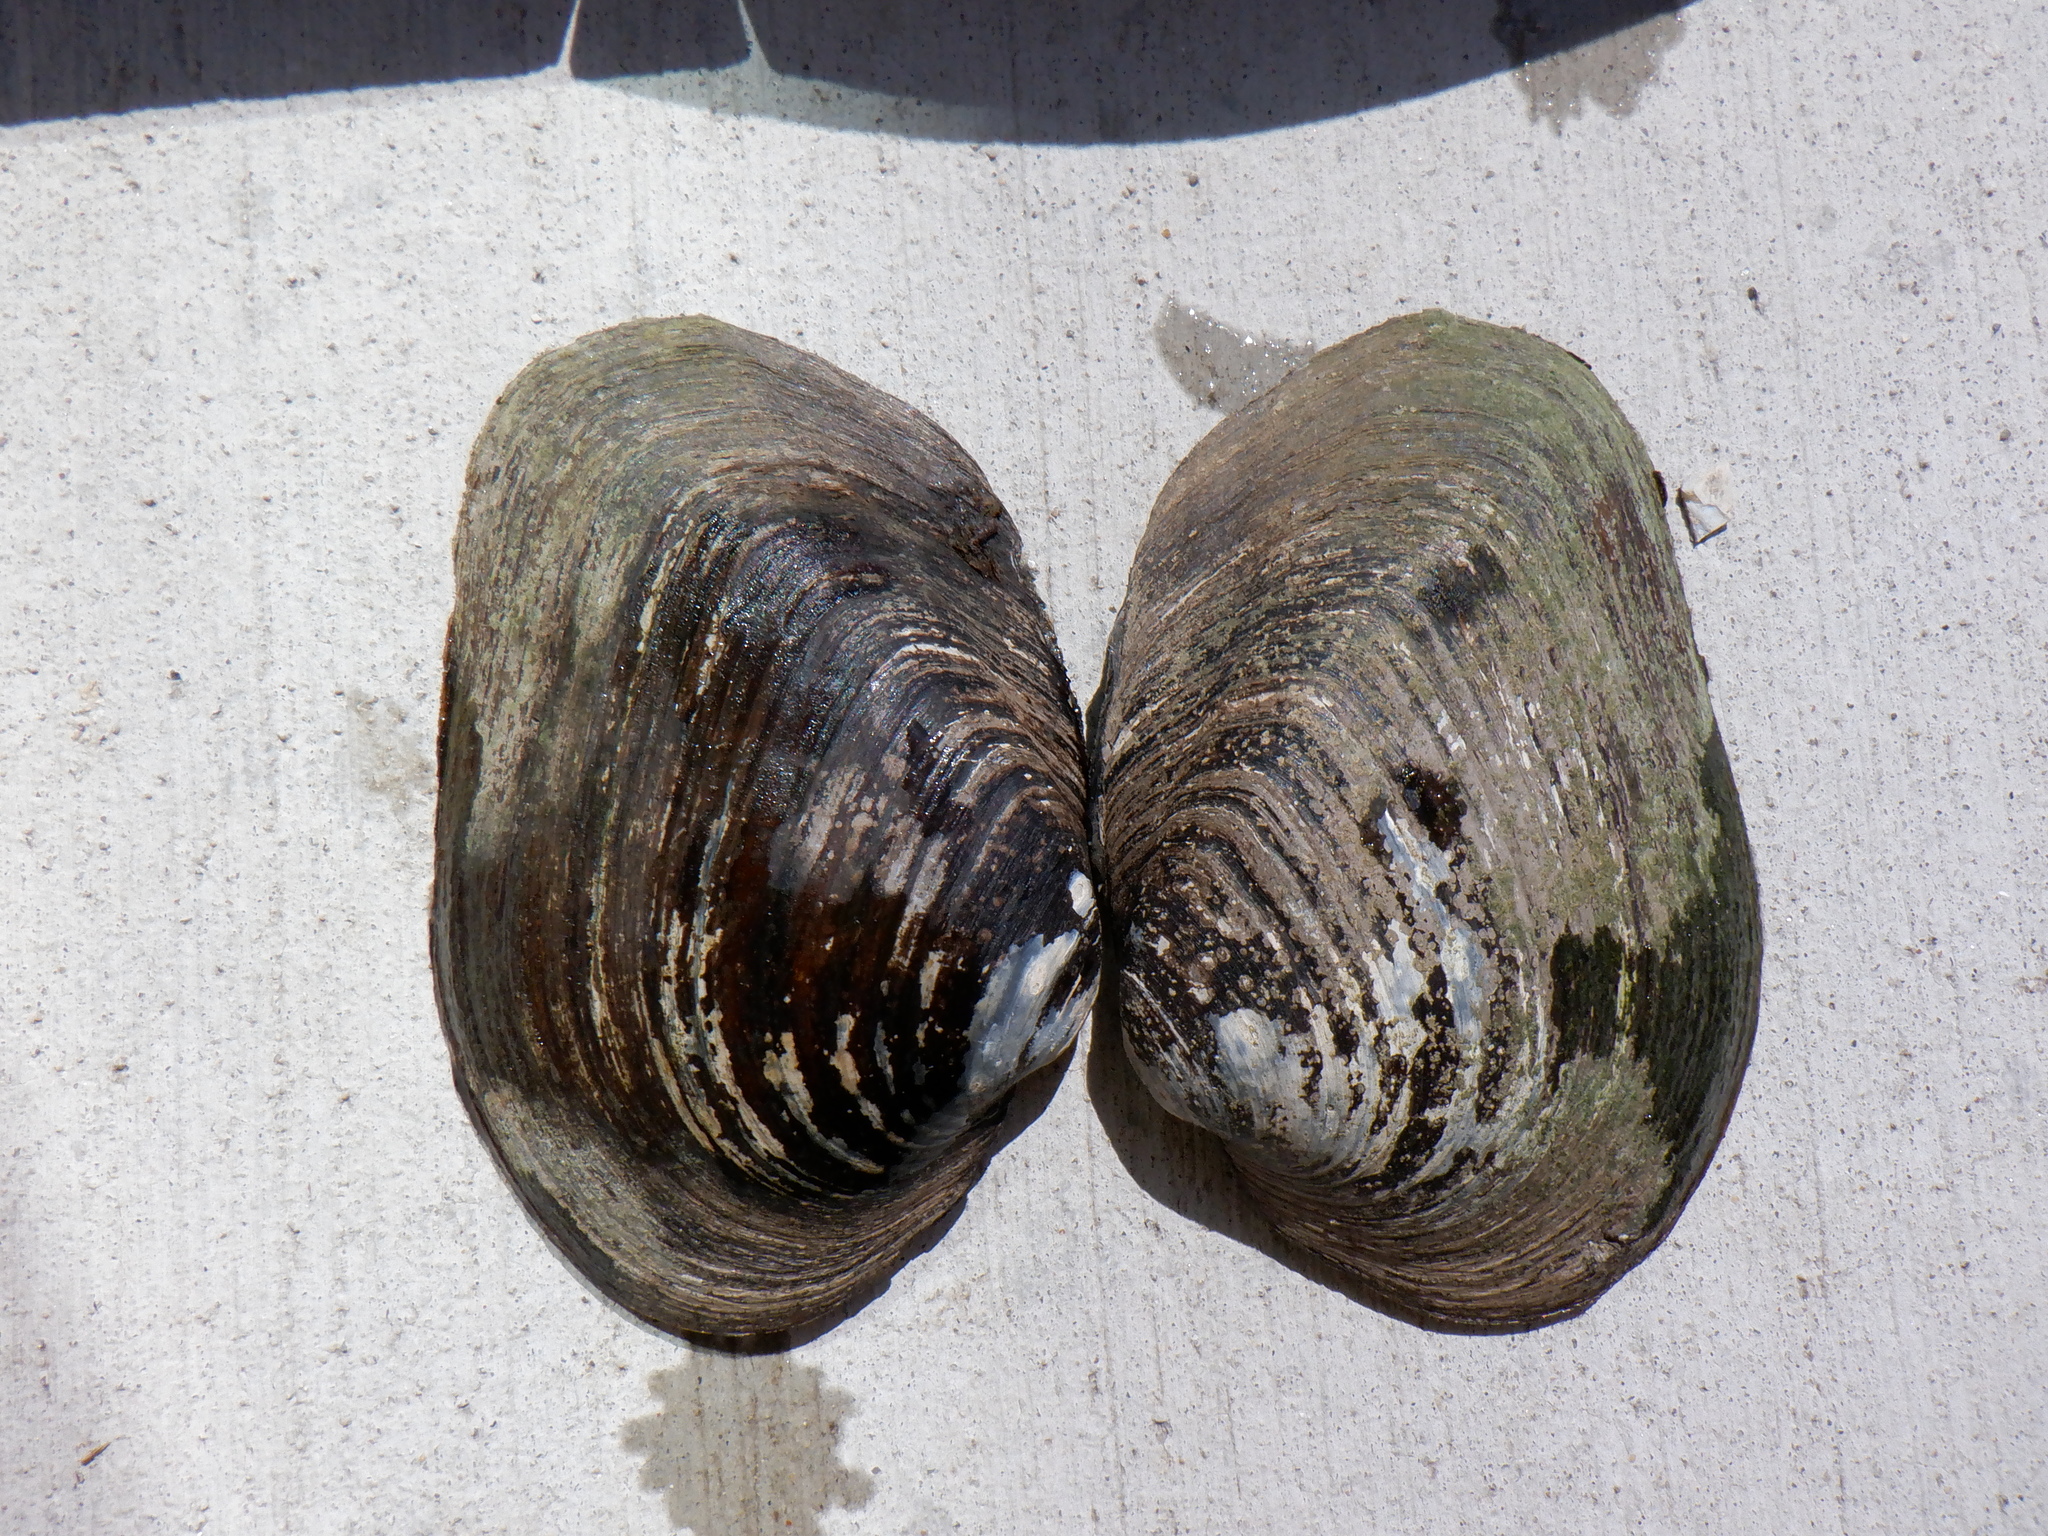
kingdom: Animalia
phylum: Mollusca
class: Bivalvia
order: Unionida
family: Unionidae
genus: Fusconaia
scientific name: Fusconaia flava
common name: Wabash pigtoe
